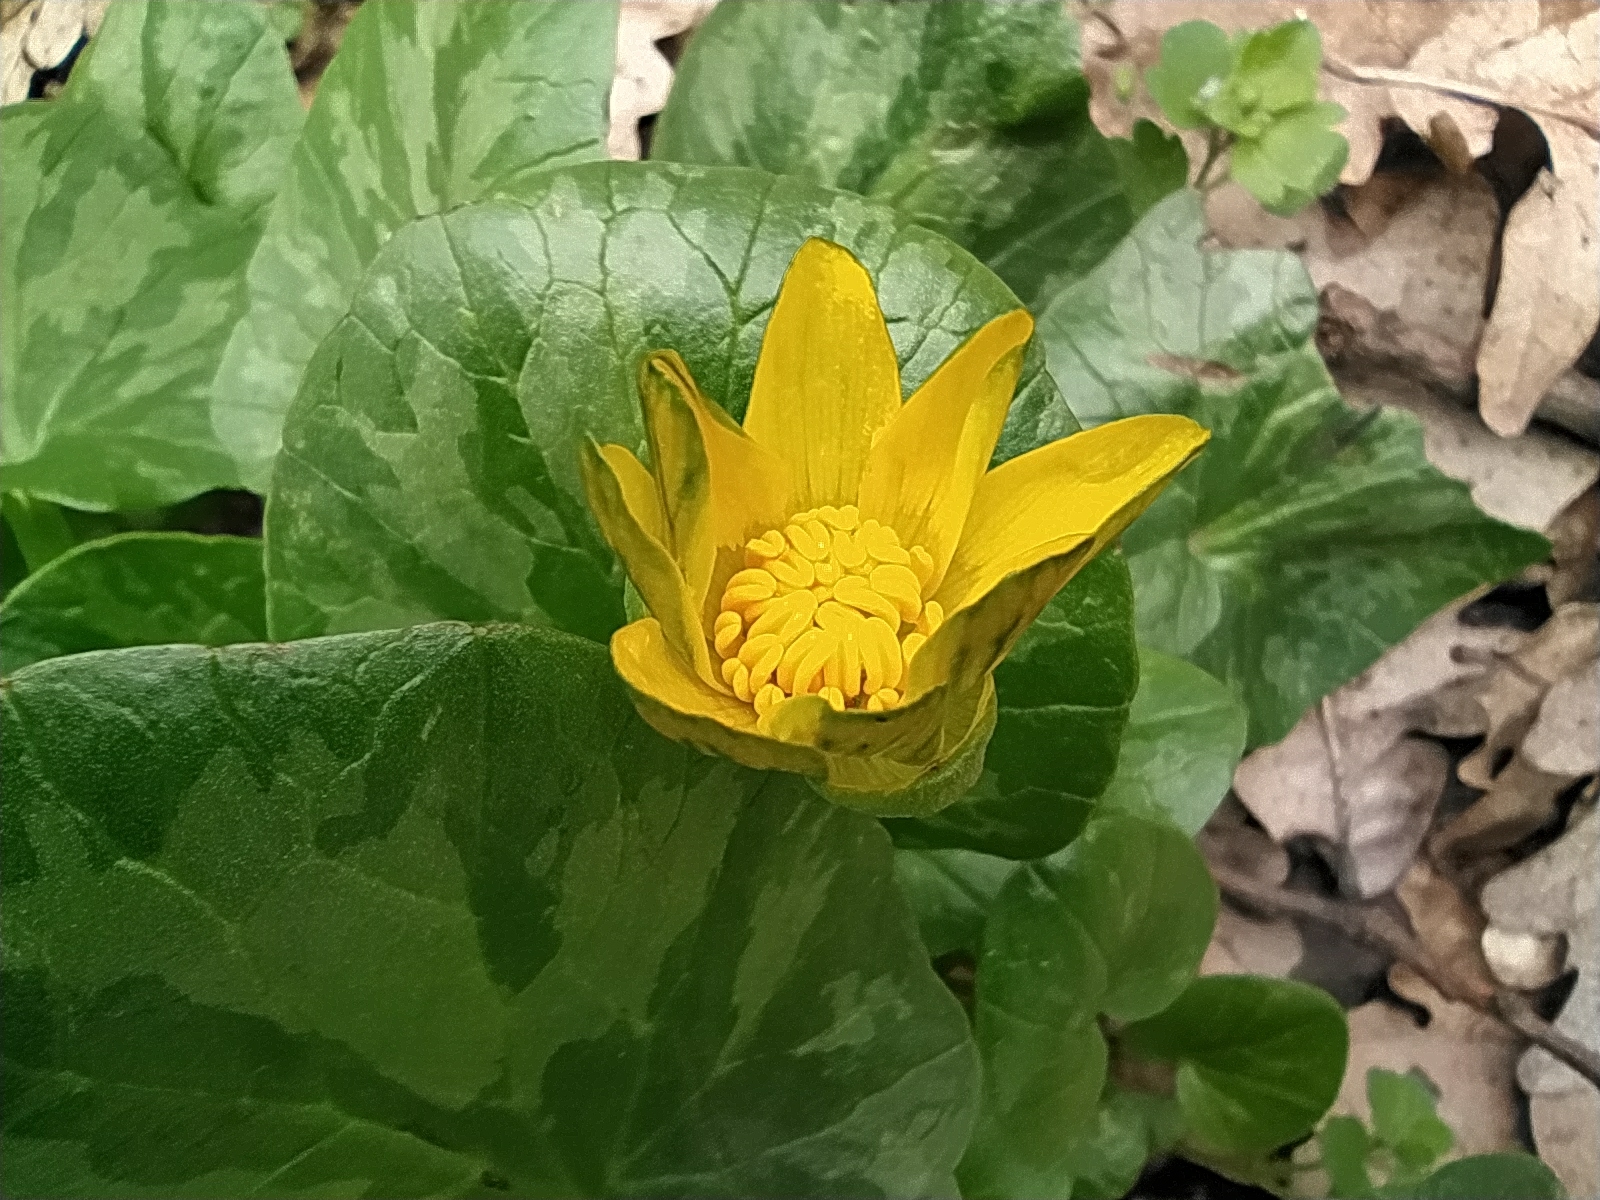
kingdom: Plantae
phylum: Tracheophyta
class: Magnoliopsida
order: Ranunculales
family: Ranunculaceae
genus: Ficaria
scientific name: Ficaria verna
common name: Lesser celandine
